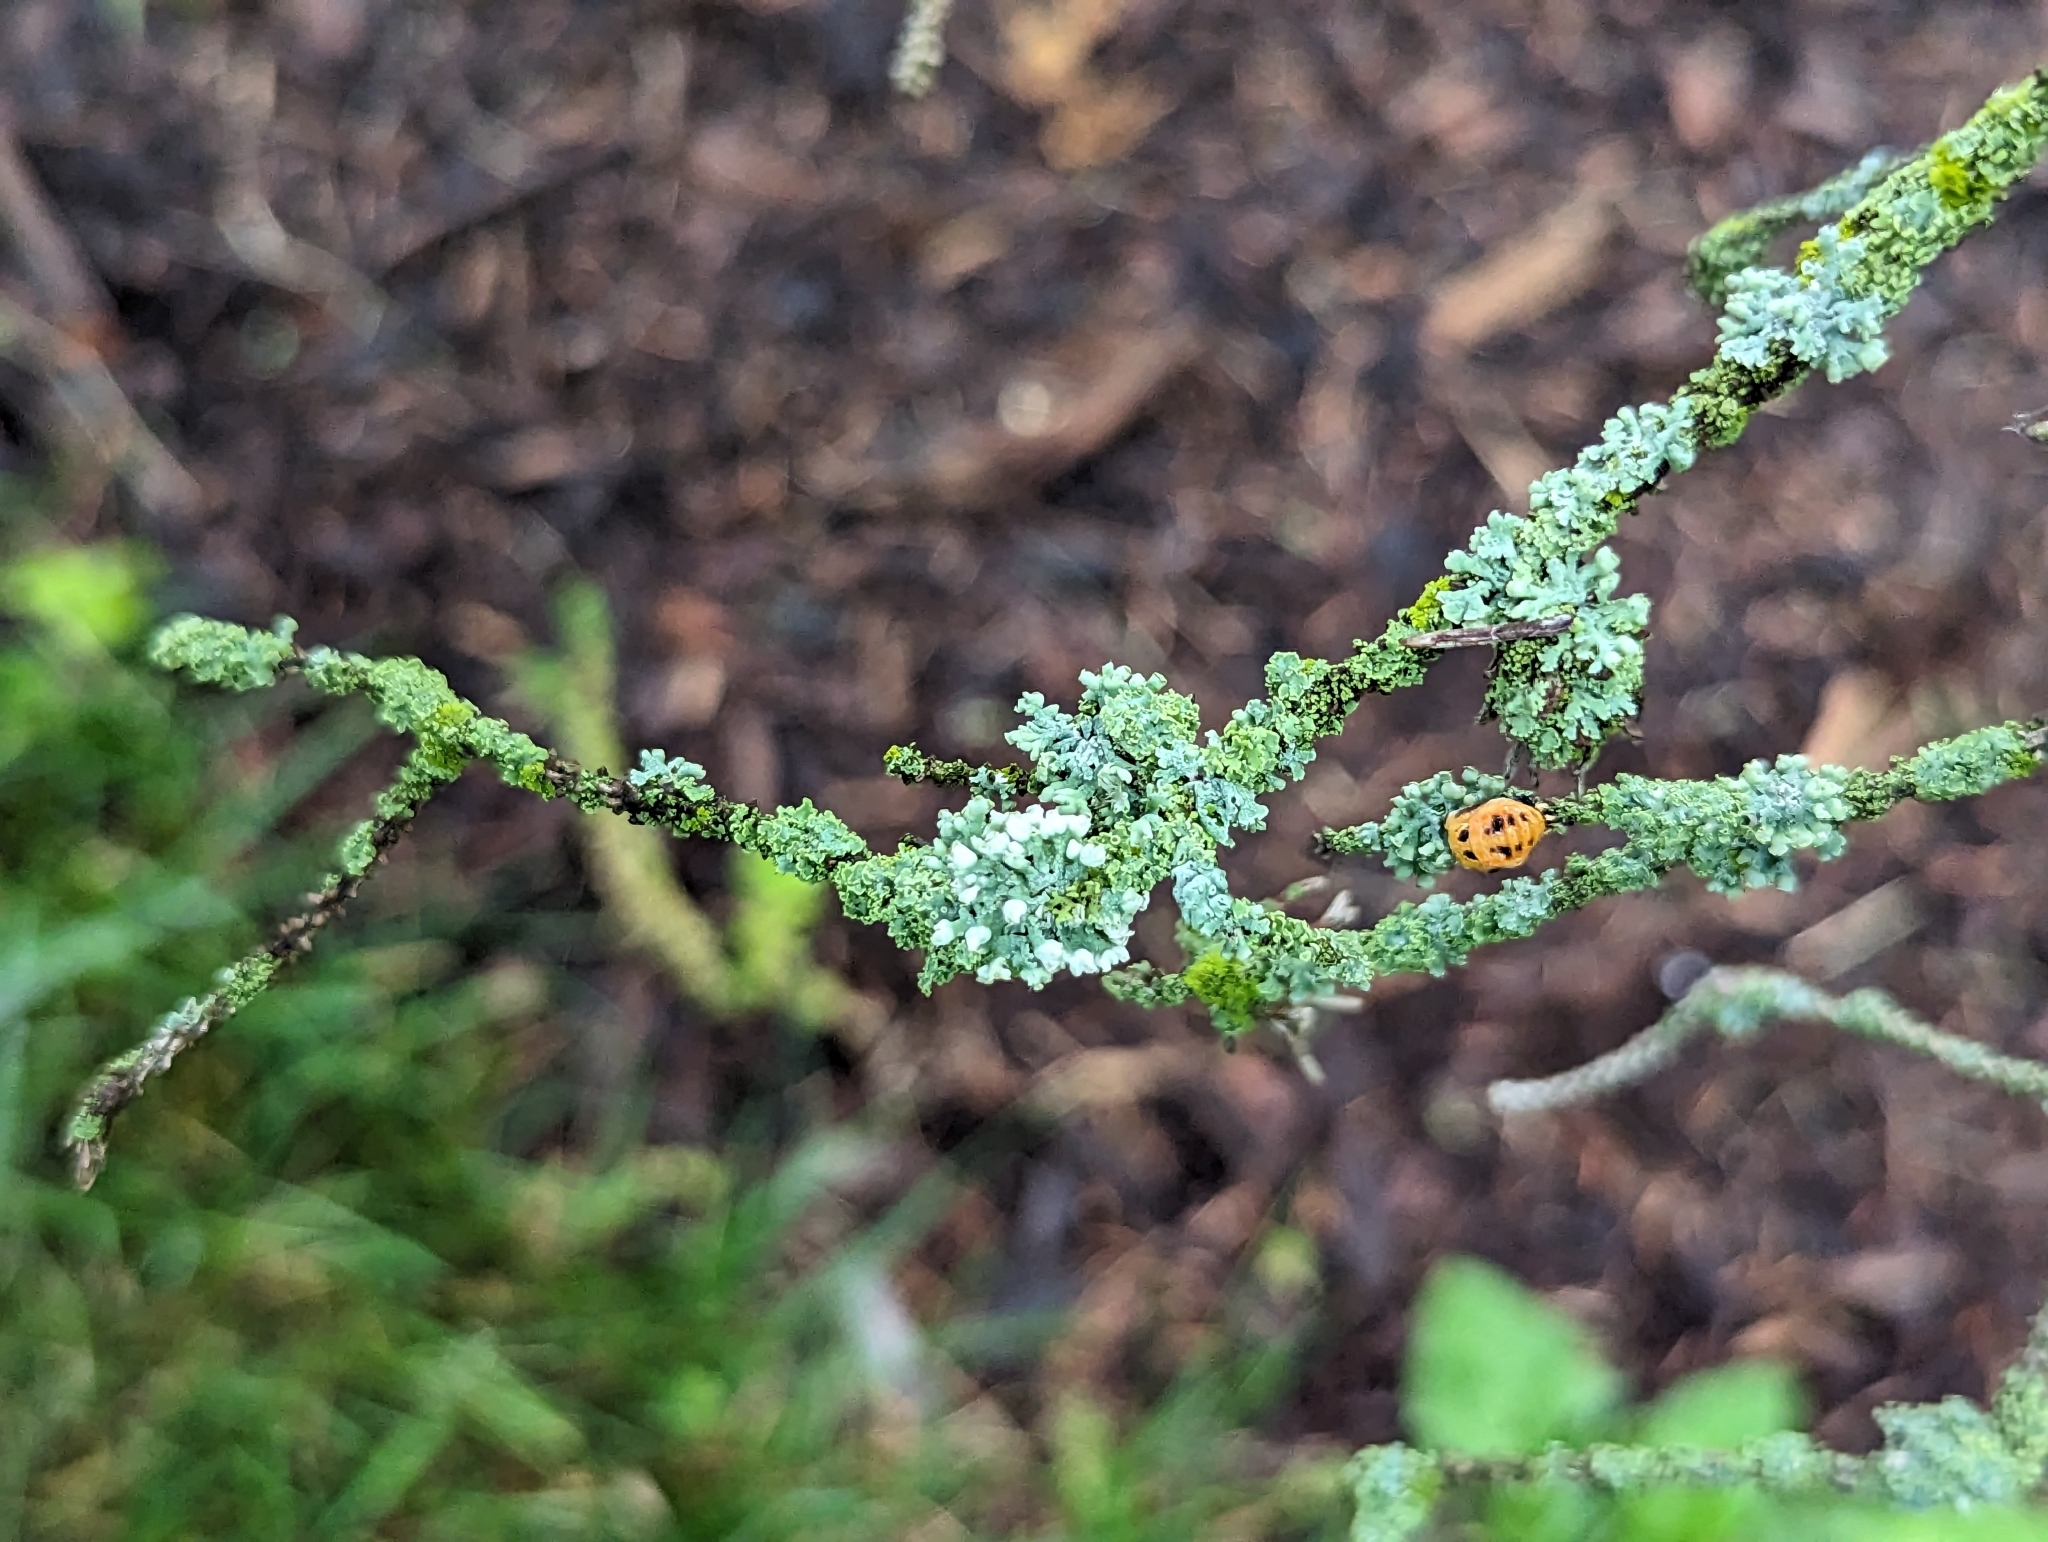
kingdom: Fungi
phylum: Ascomycota
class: Lecanoromycetes
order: Caliciales
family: Physciaceae
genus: Physcia
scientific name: Physcia adscendens
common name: Hooded rosette lichen
